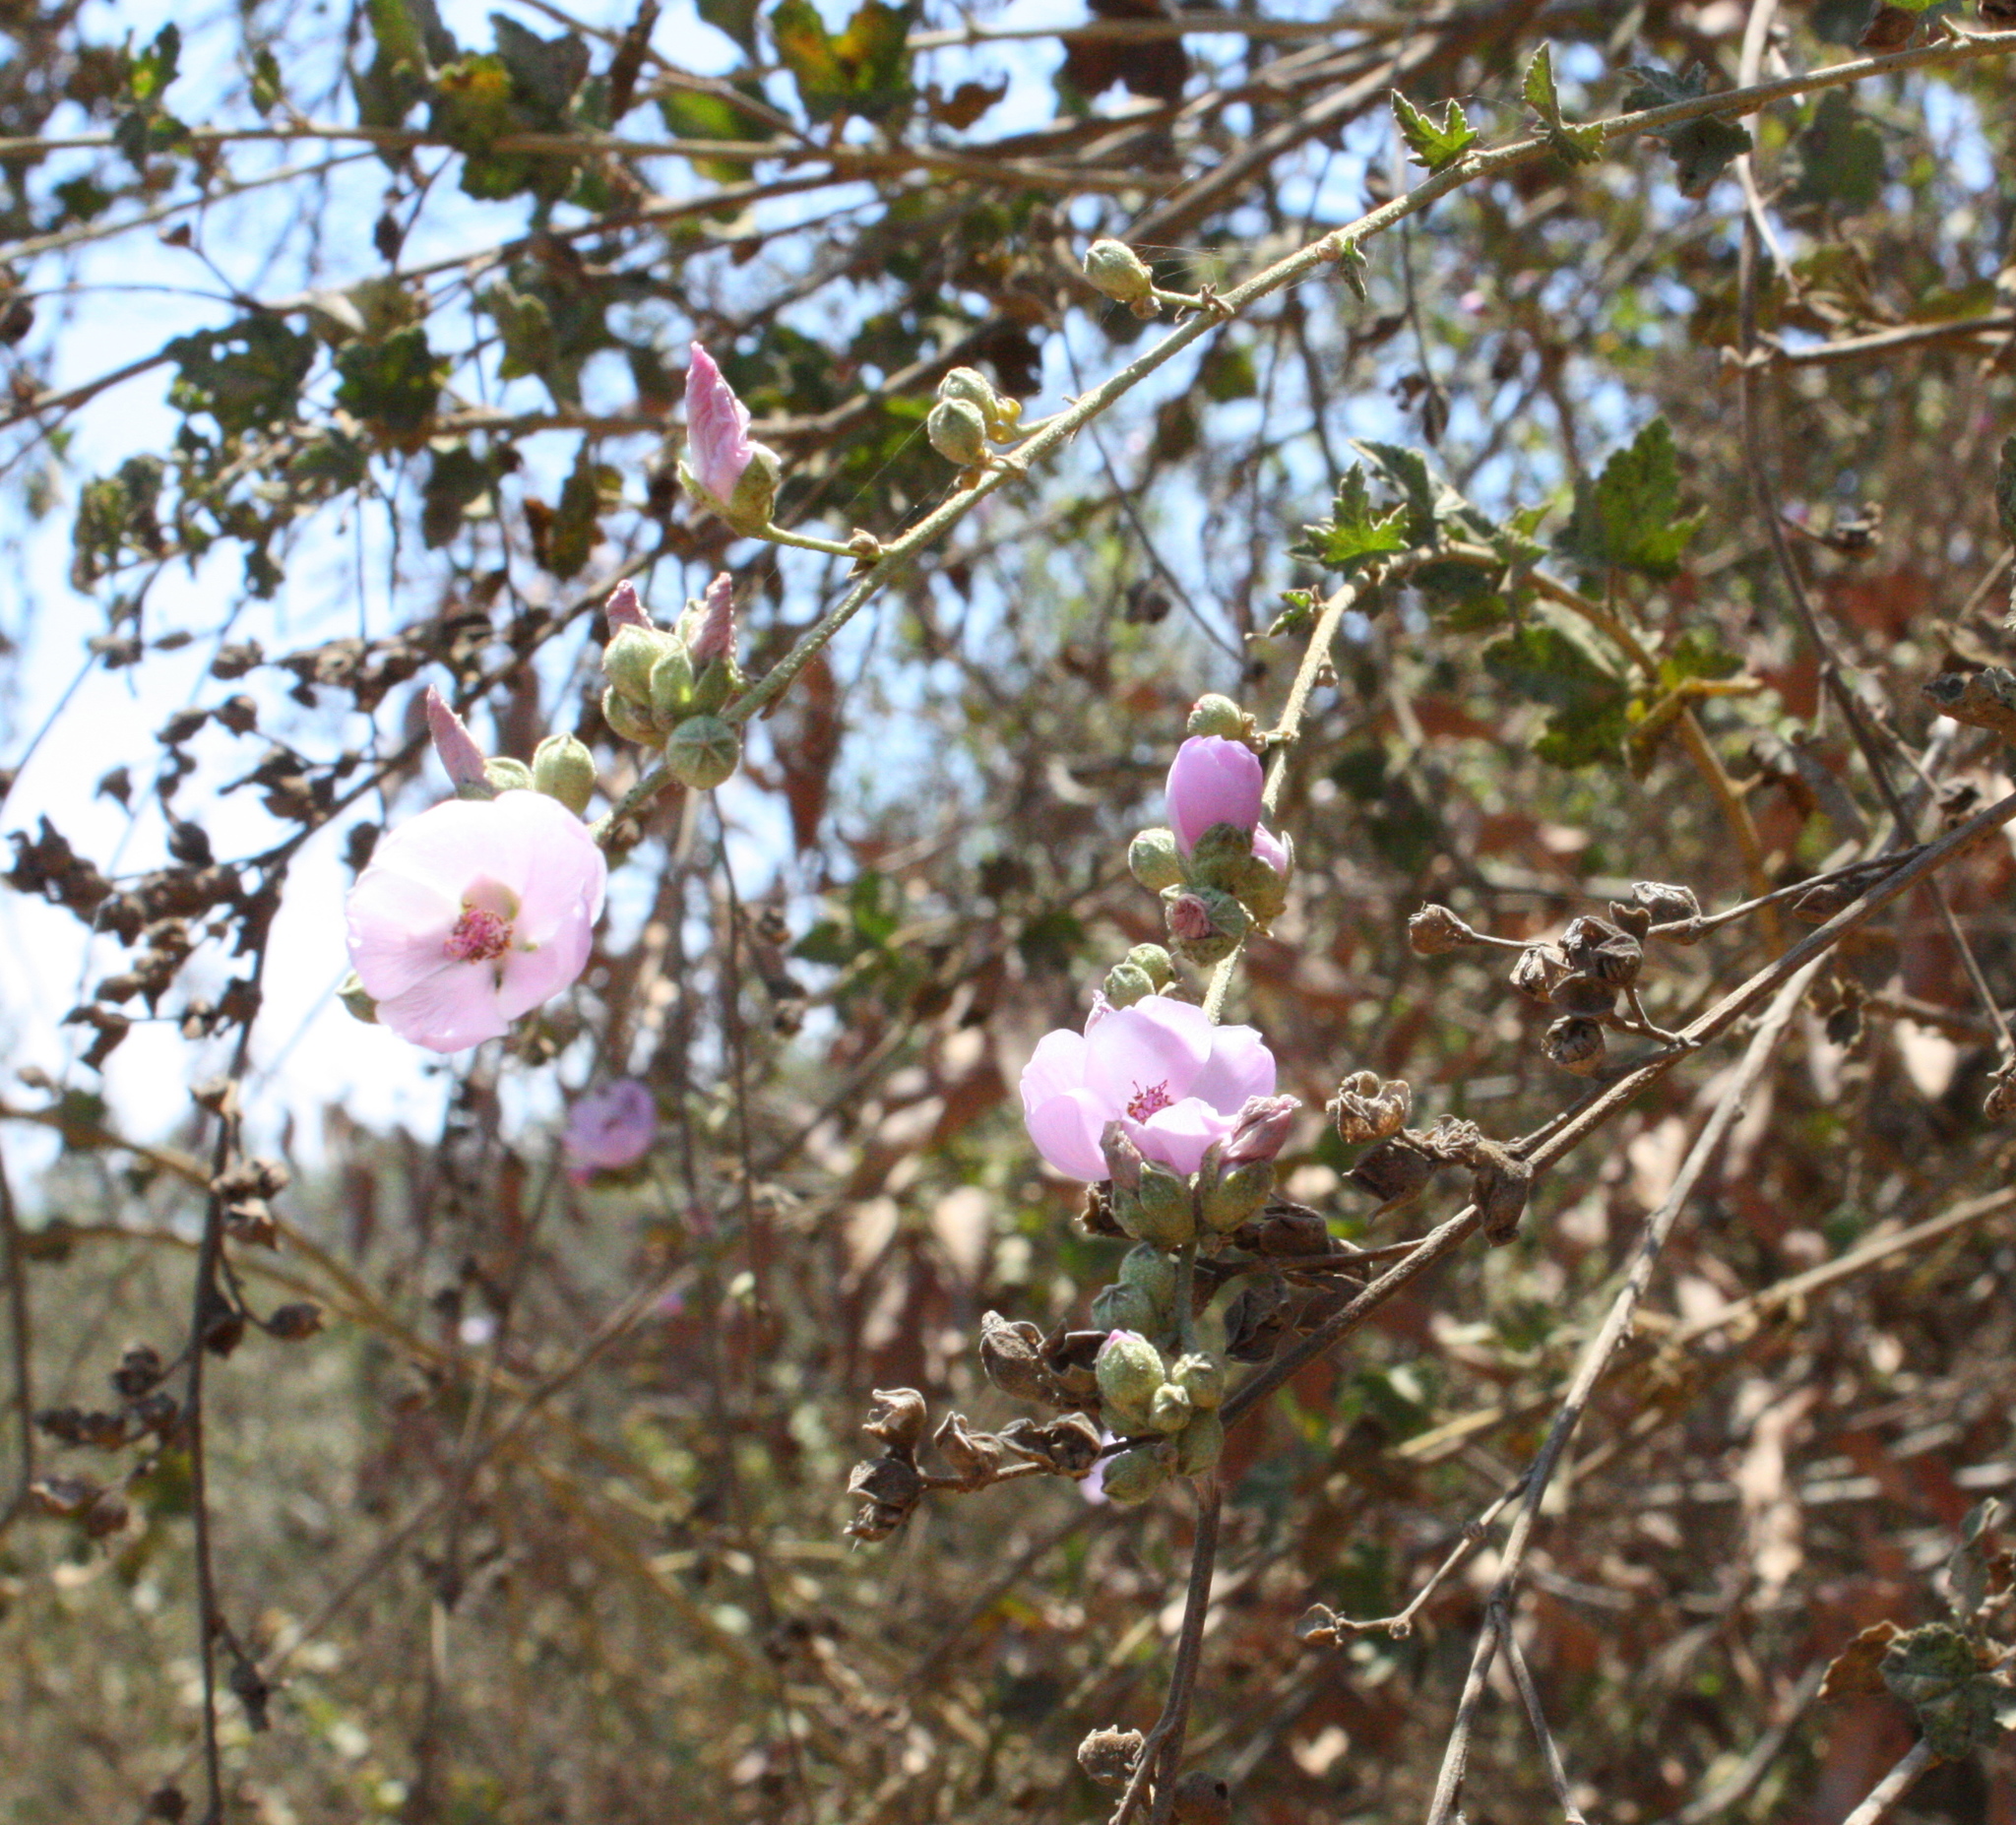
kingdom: Plantae
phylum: Tracheophyta
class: Magnoliopsida
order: Malvales
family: Malvaceae
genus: Malacothamnus
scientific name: Malacothamnus fasciculatus
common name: Sant cruz island bush-mallow
